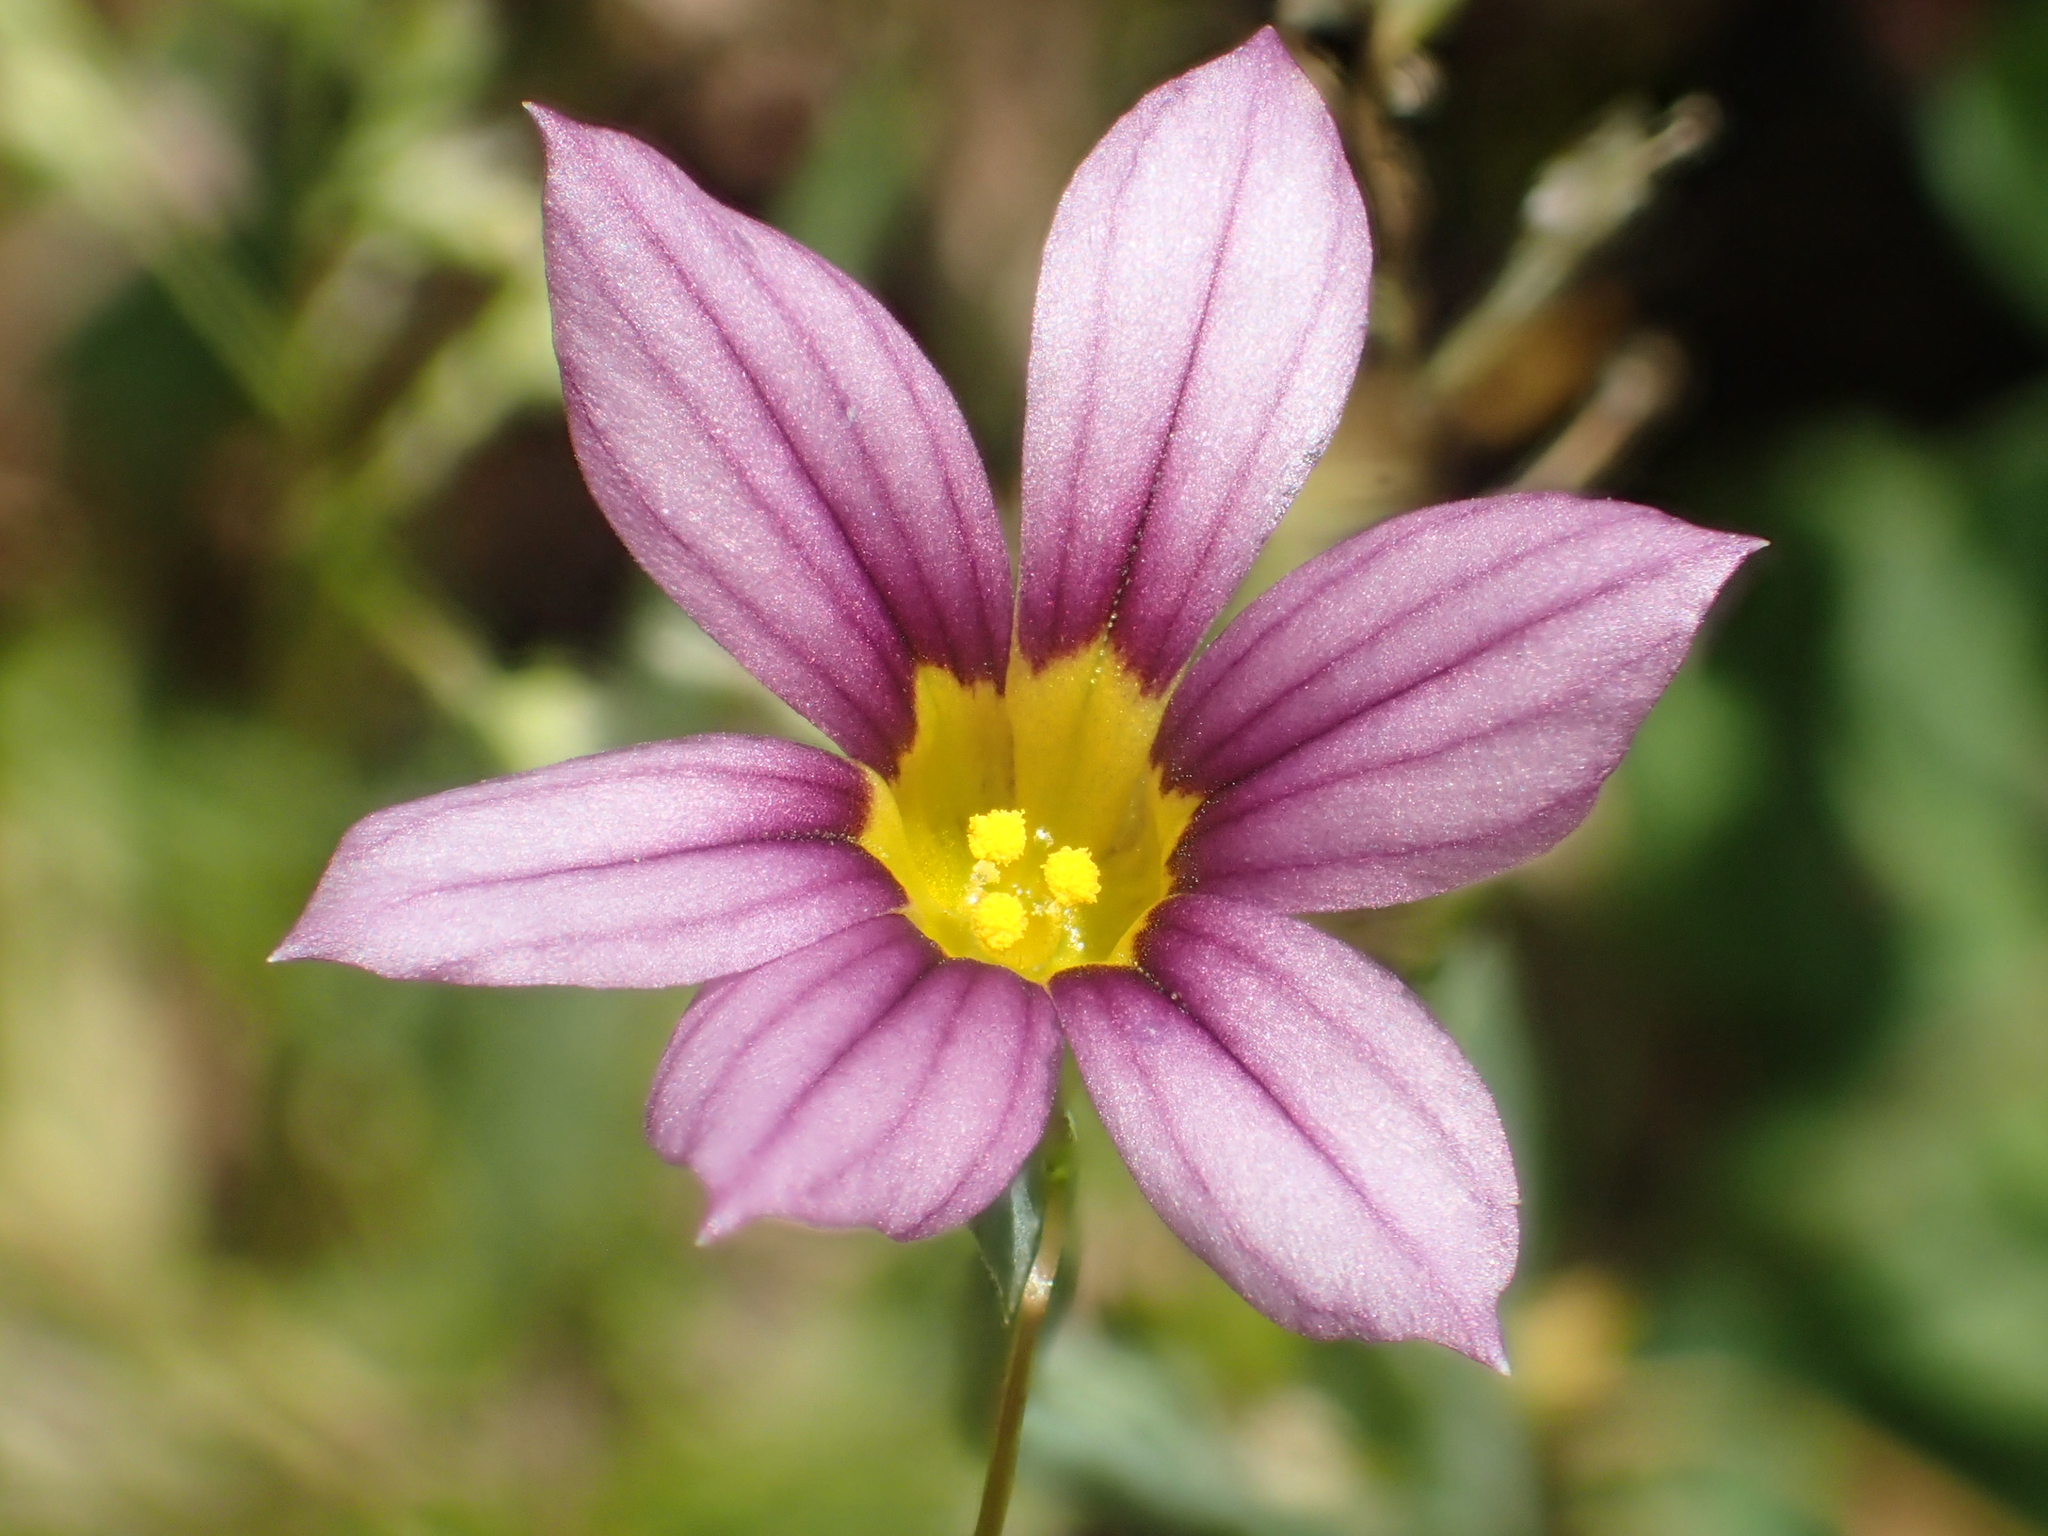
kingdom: Plantae
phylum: Tracheophyta
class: Liliopsida
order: Asparagales
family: Iridaceae
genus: Sisyrinchium
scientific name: Sisyrinchium micranthum
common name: Bermuda pigroot
